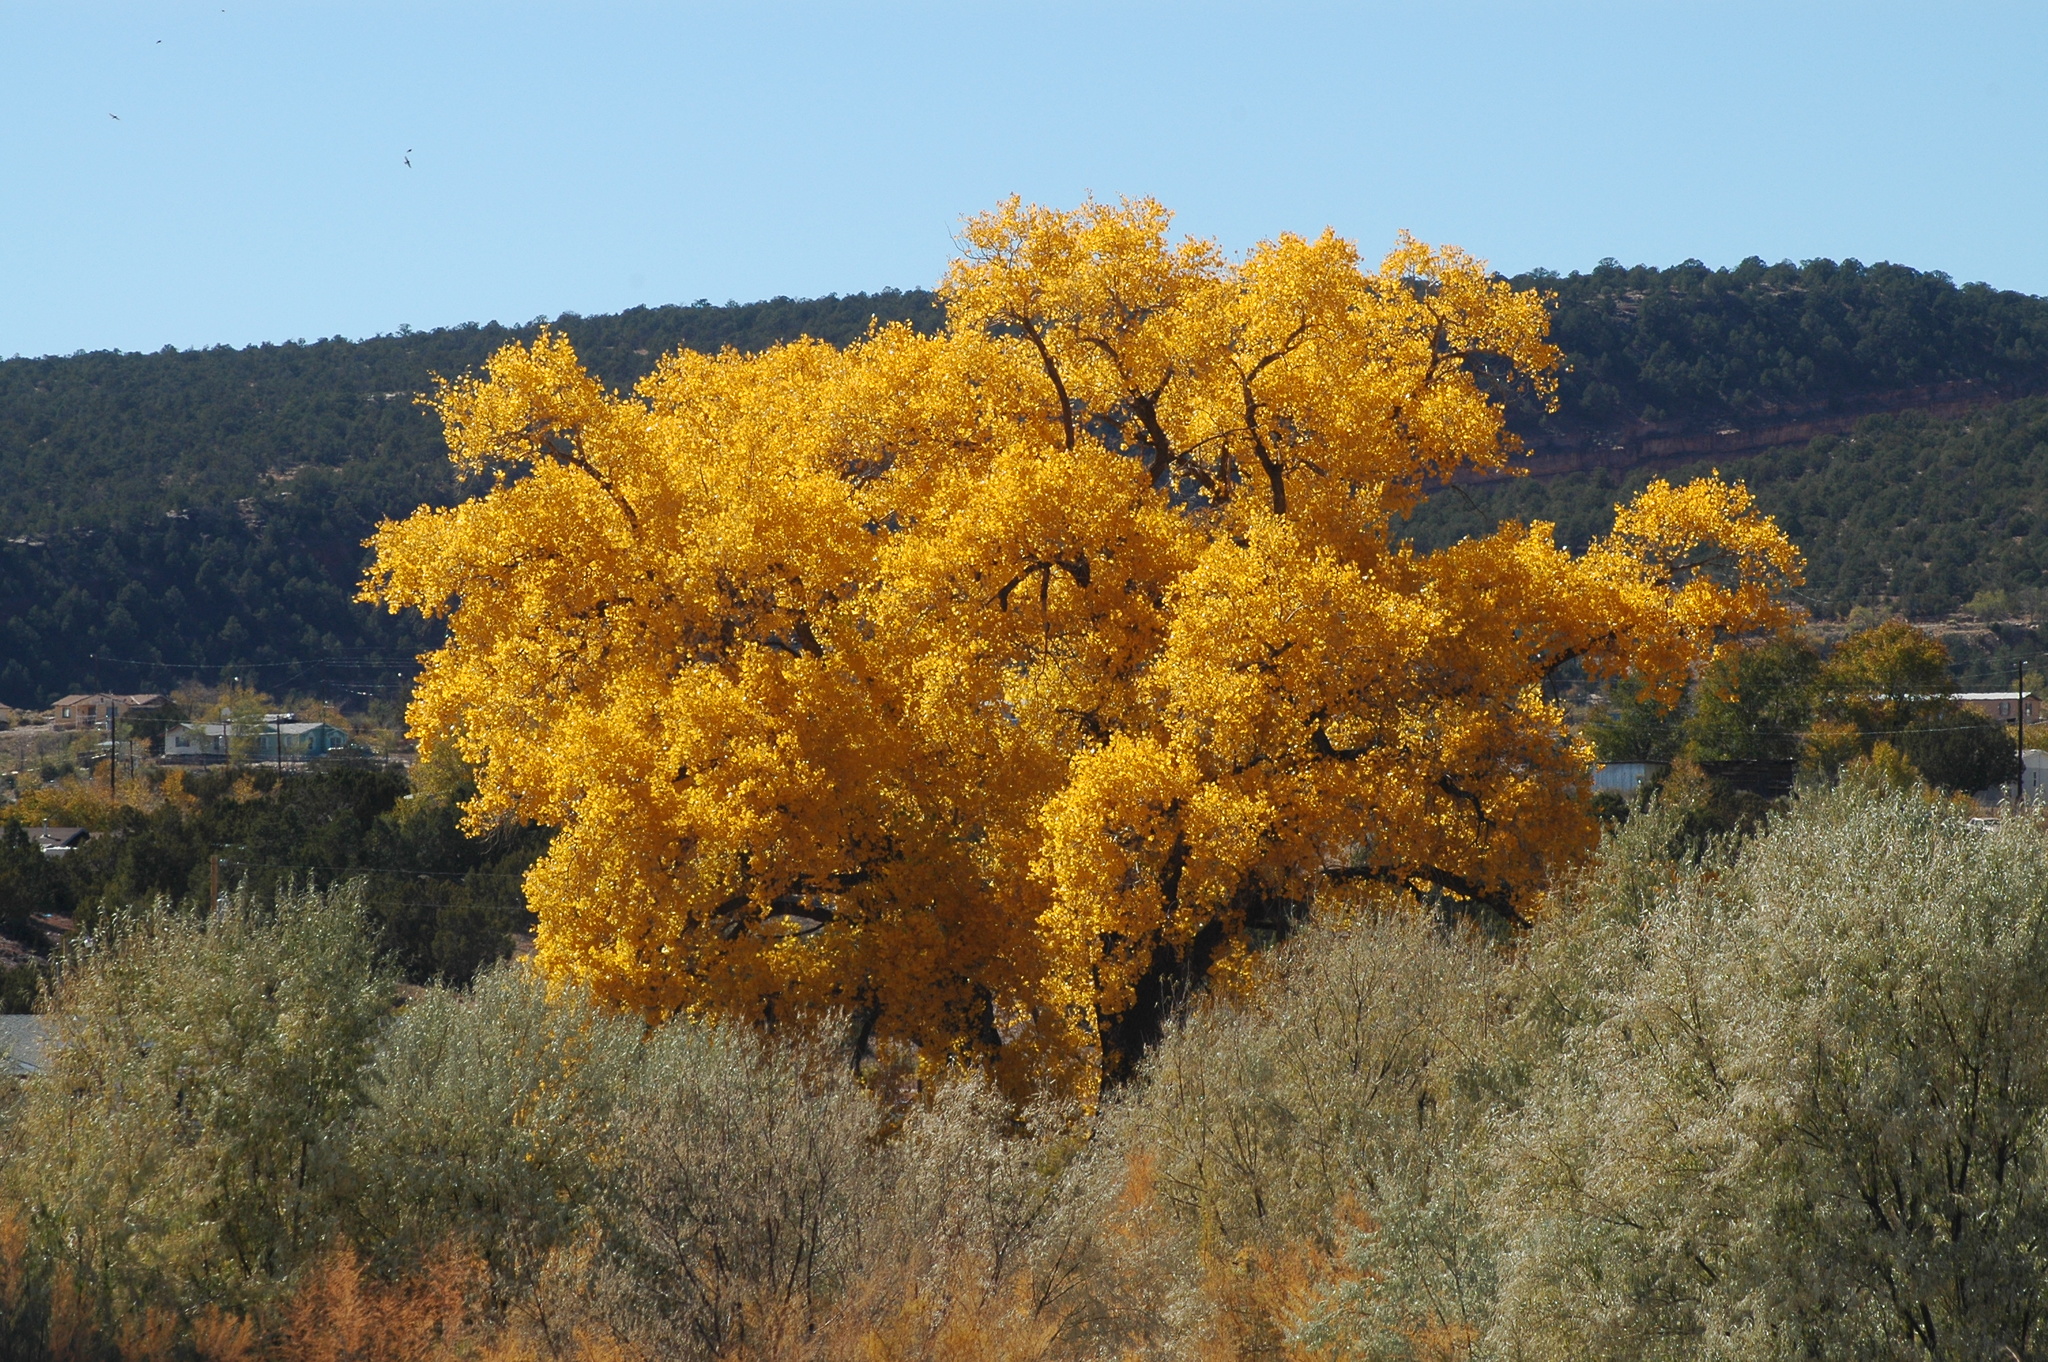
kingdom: Plantae
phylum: Tracheophyta
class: Magnoliopsida
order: Malpighiales
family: Salicaceae
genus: Populus
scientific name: Populus fremontii
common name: Fremont's cottonwood
